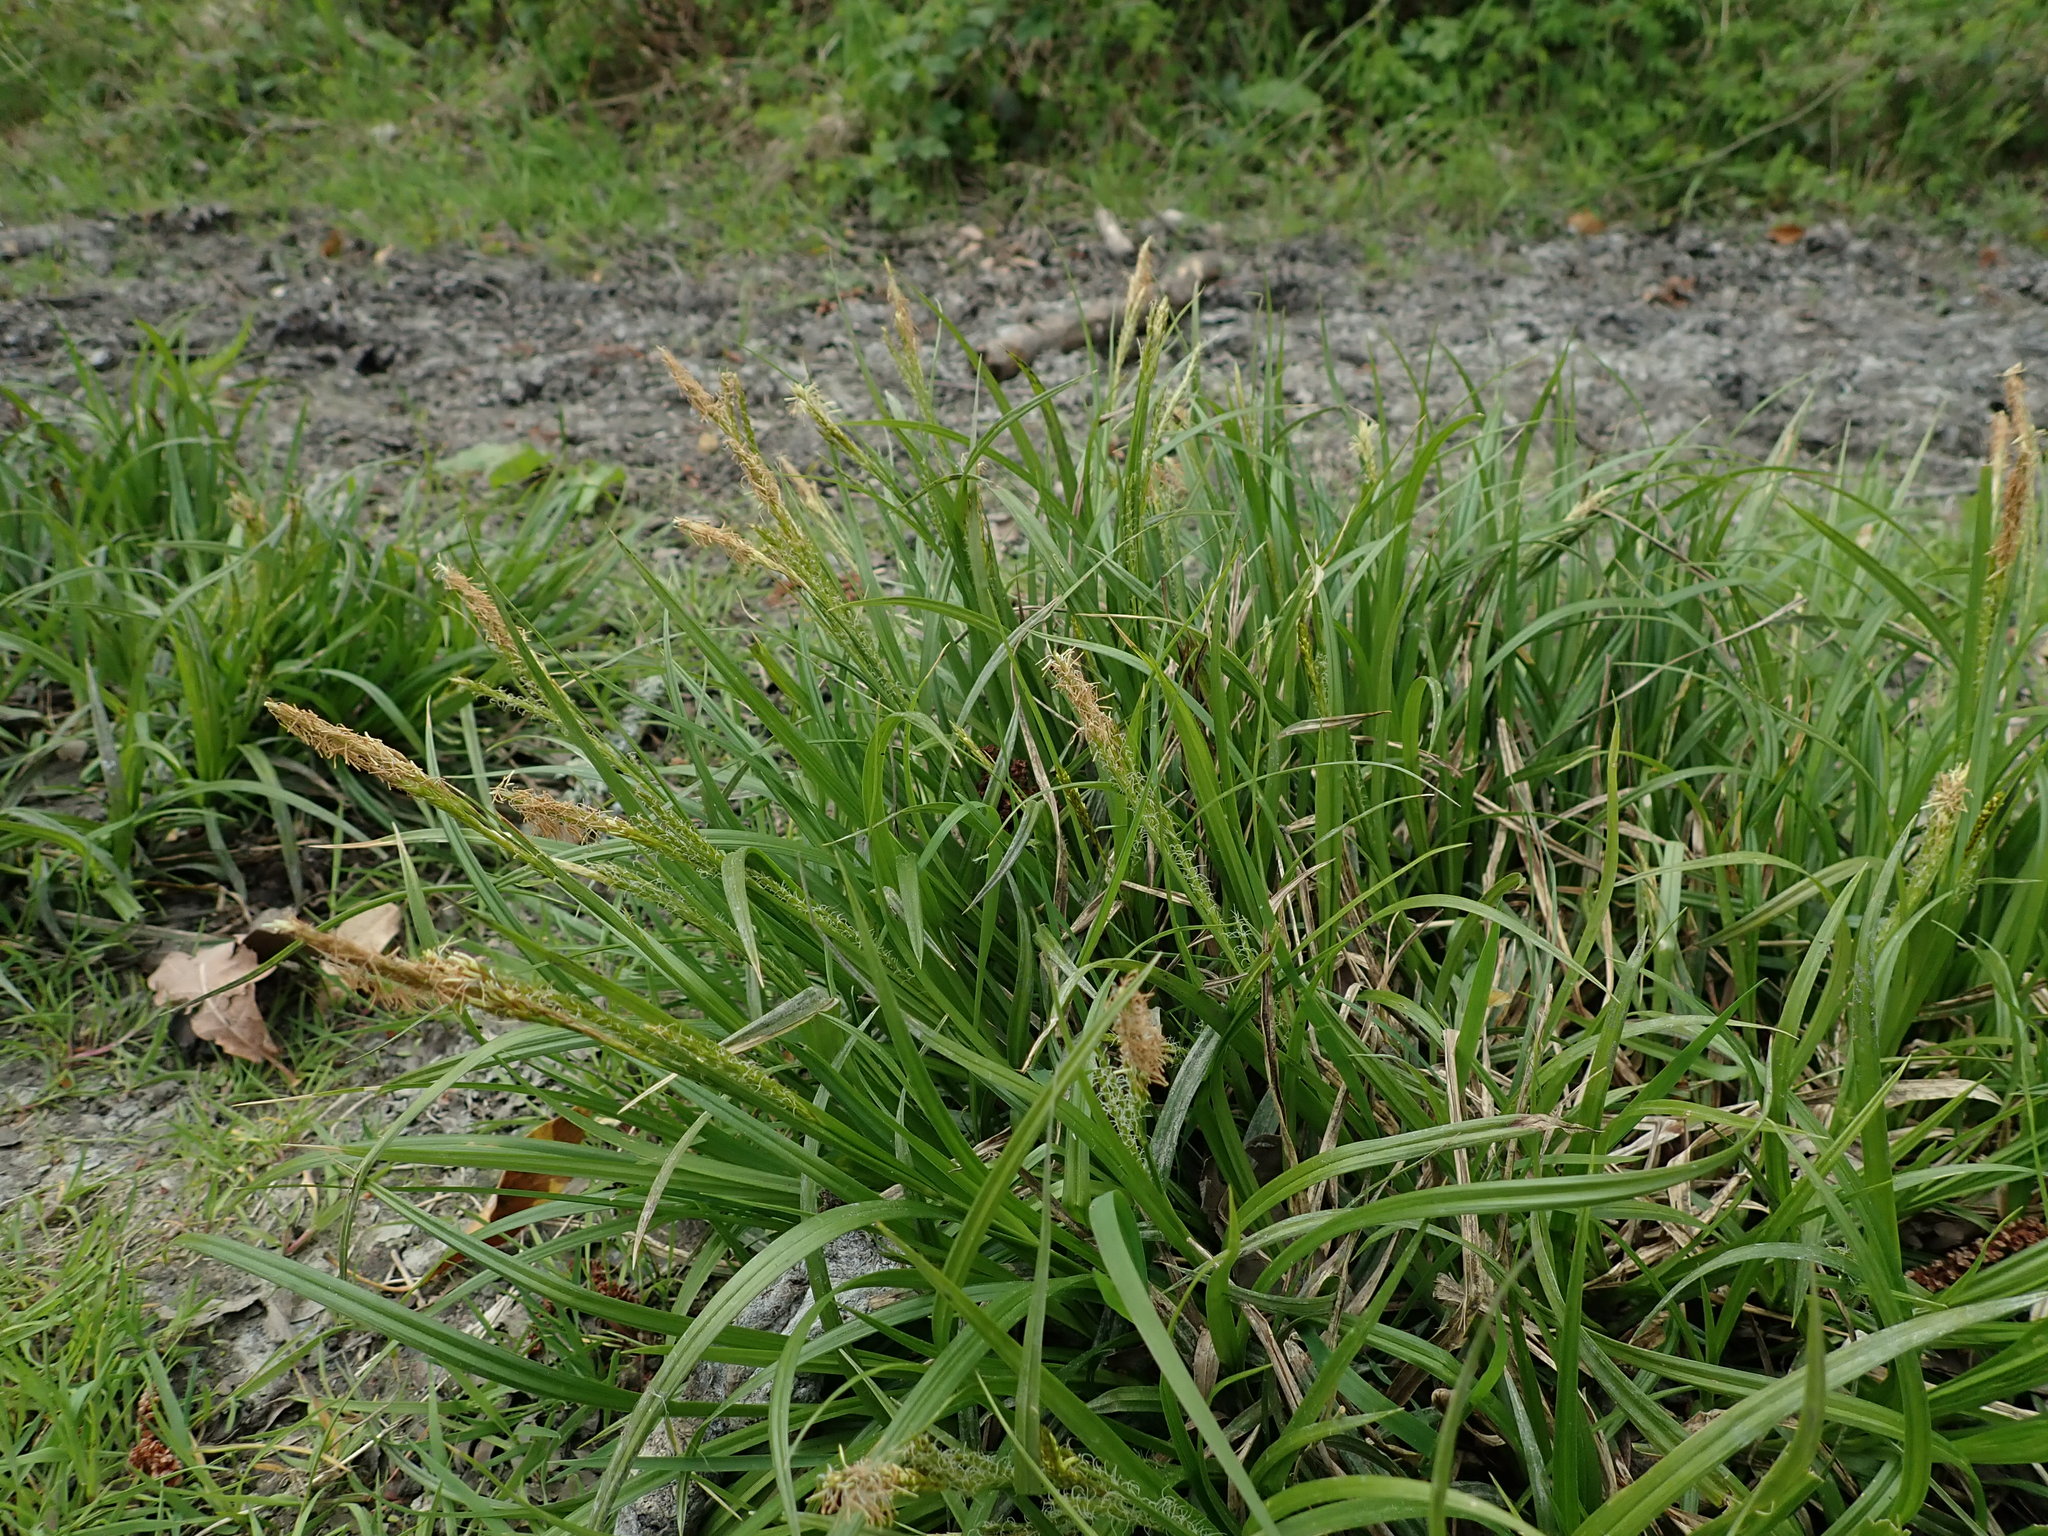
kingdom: Plantae
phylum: Tracheophyta
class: Liliopsida
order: Poales
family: Cyperaceae
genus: Carex
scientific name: Carex sylvatica
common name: Wood-sedge
